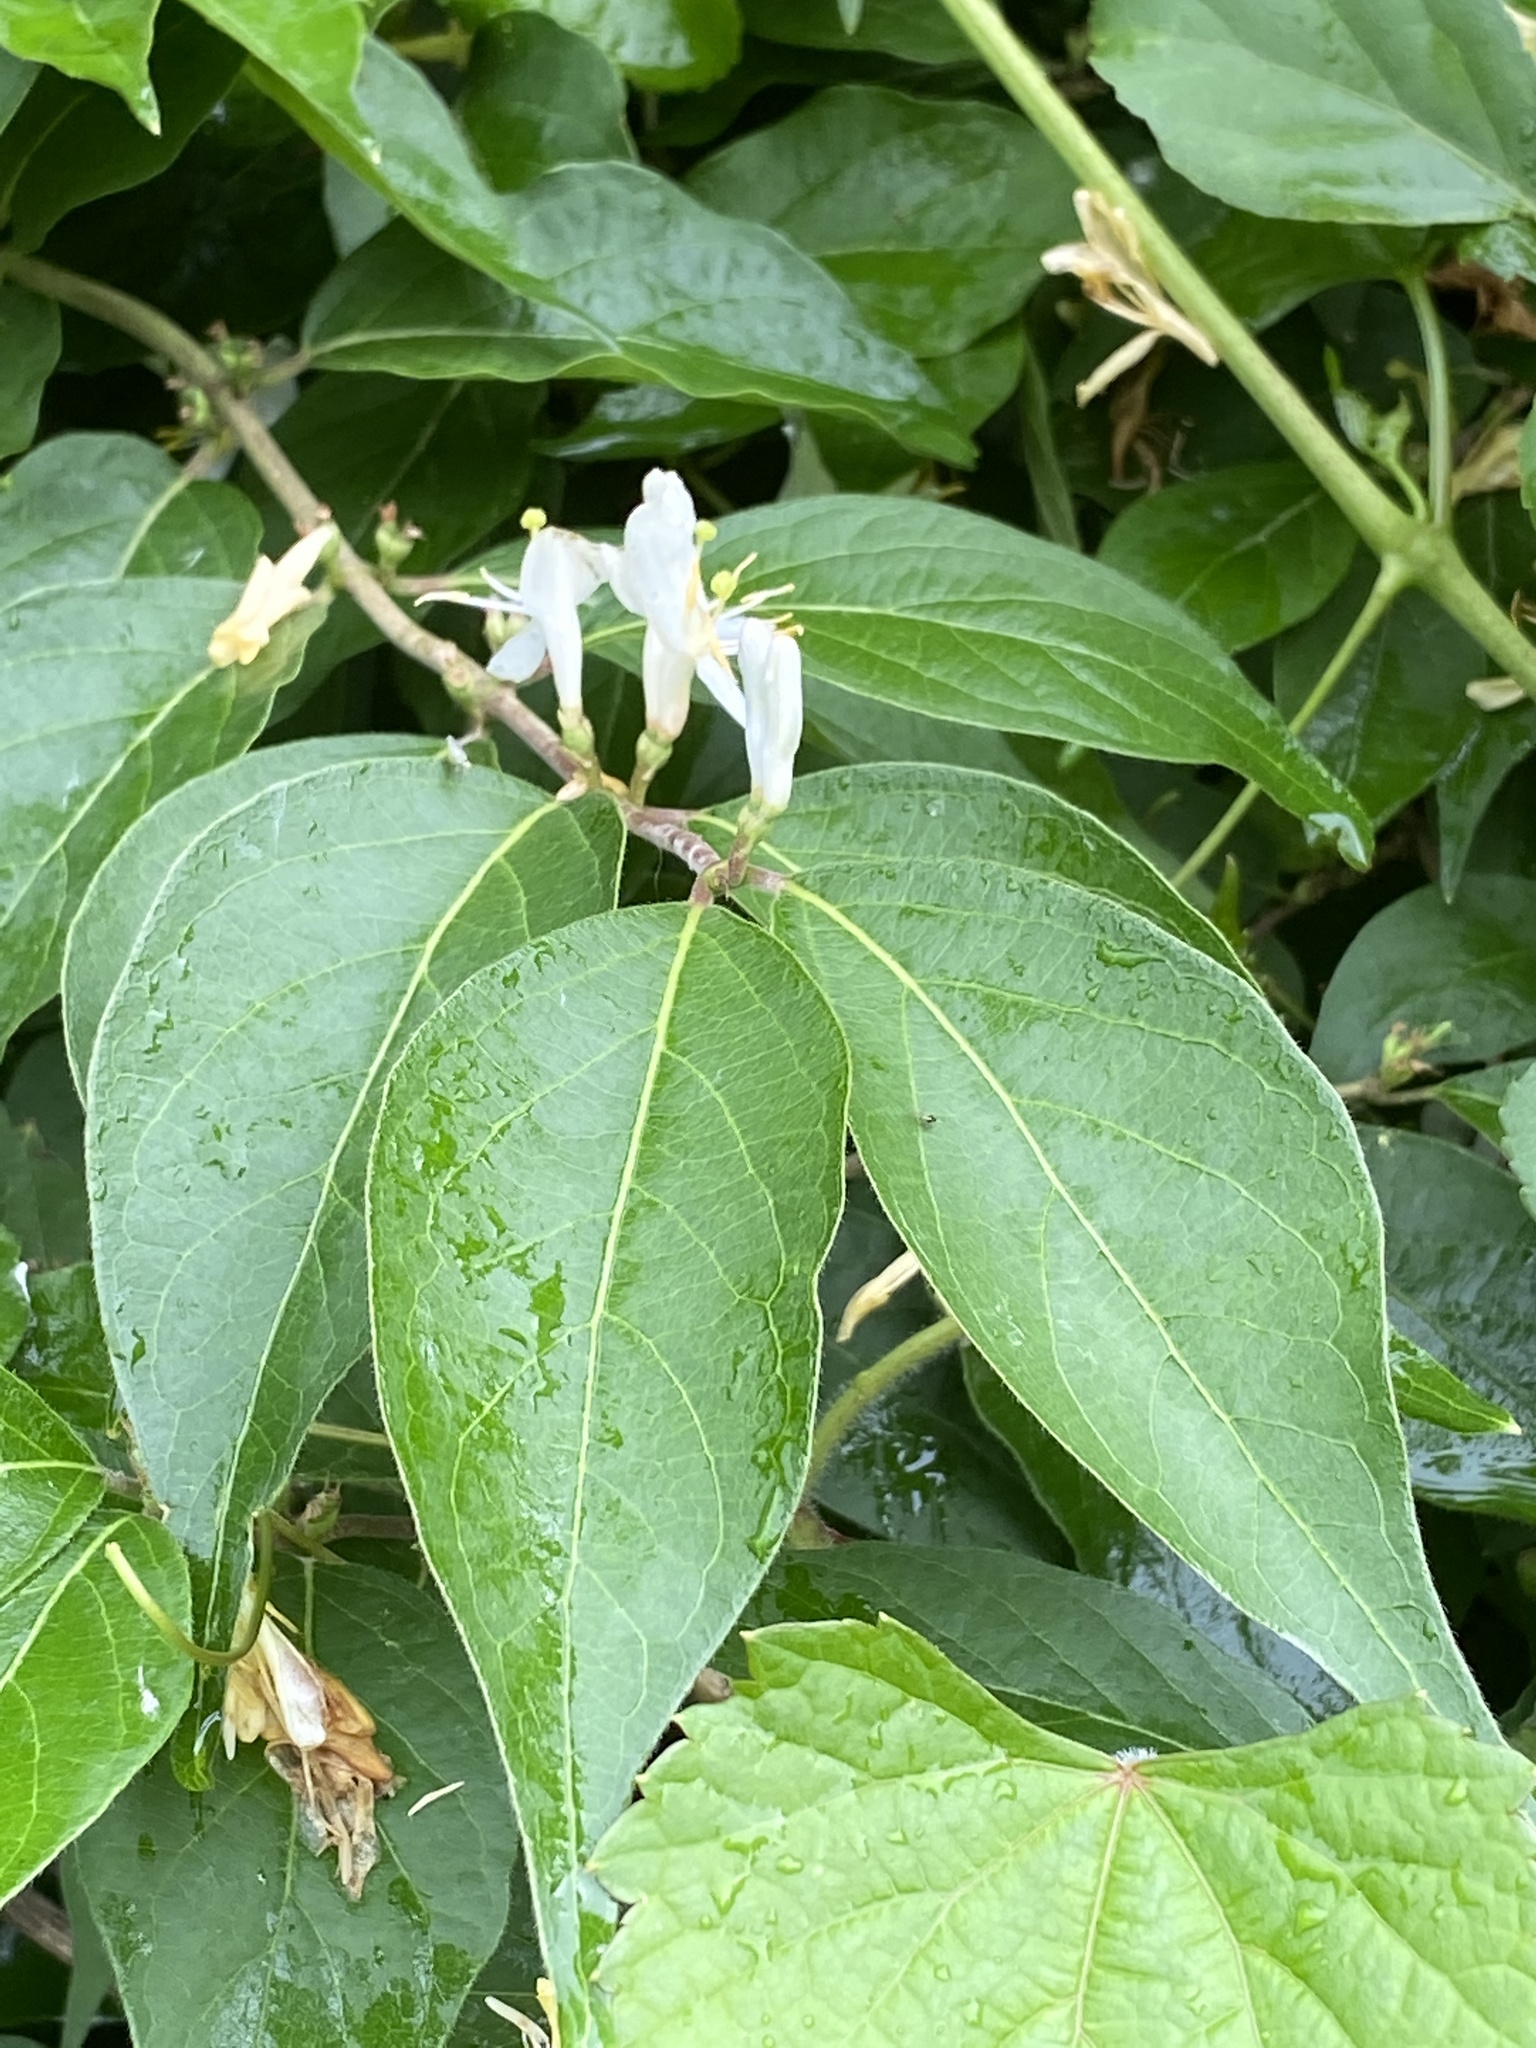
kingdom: Plantae
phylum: Tracheophyta
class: Magnoliopsida
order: Dipsacales
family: Caprifoliaceae
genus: Lonicera
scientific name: Lonicera maackii
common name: Amur honeysuckle
